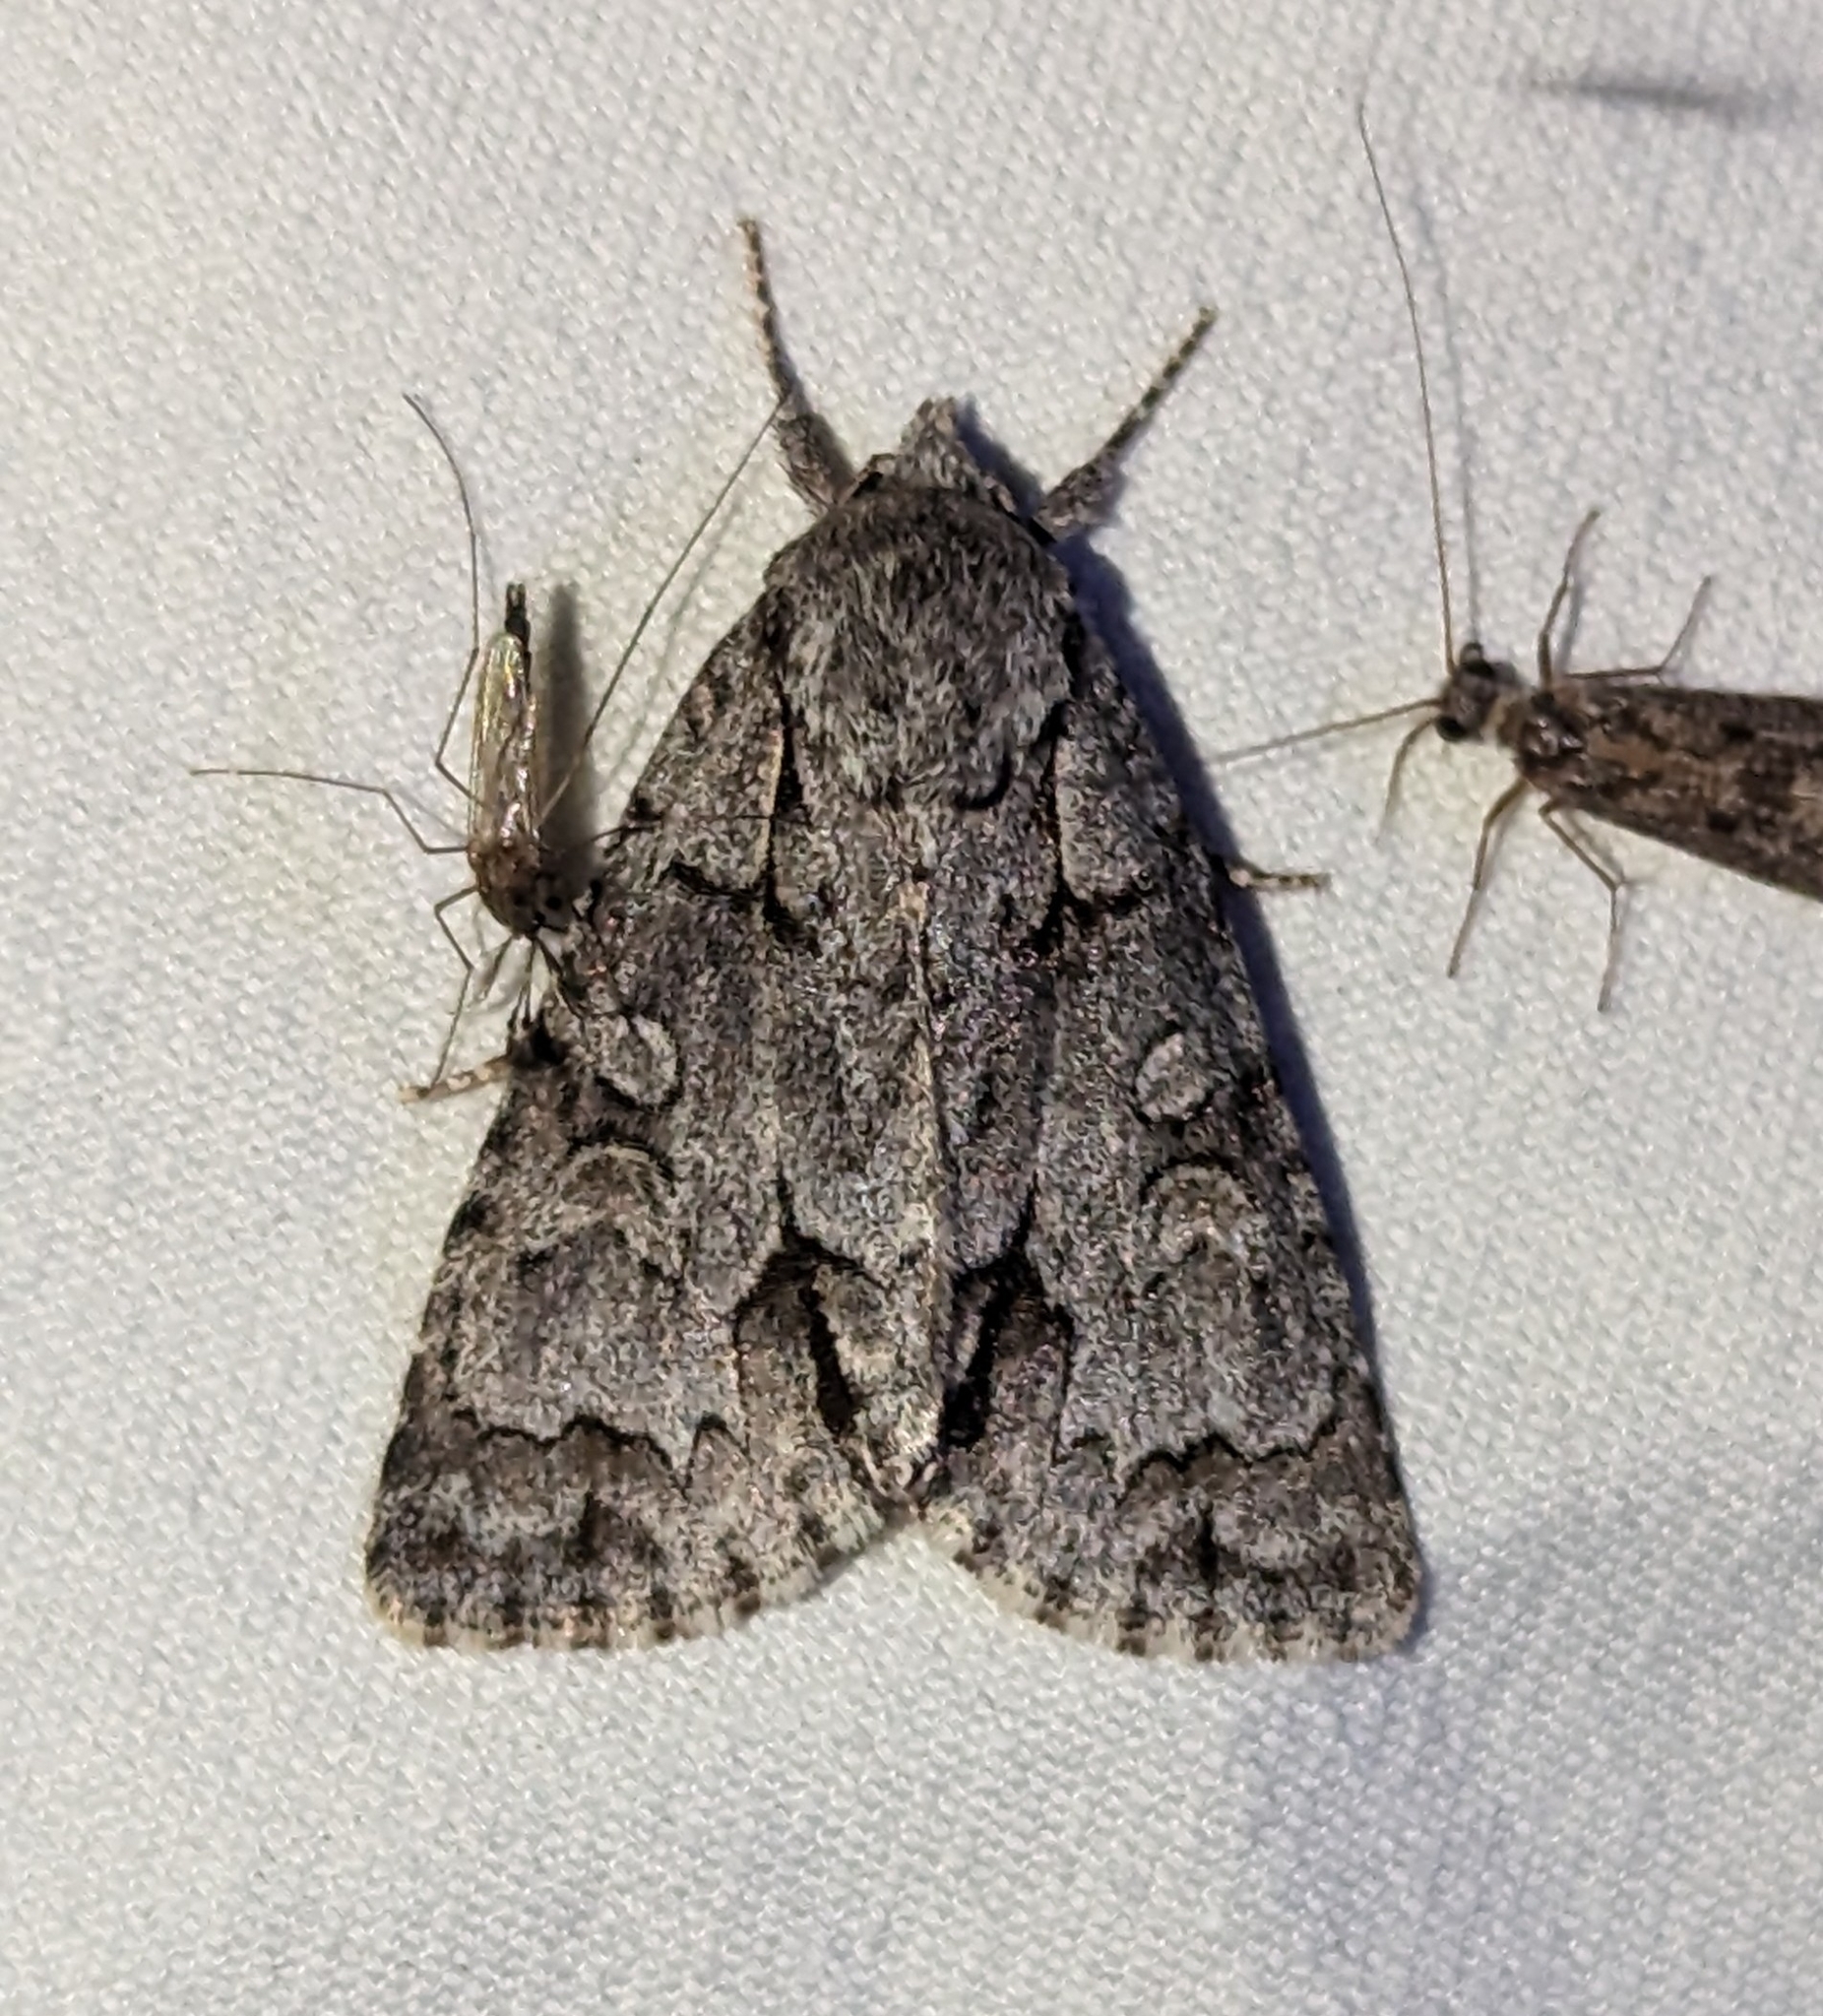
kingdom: Animalia
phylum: Arthropoda
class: Insecta
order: Lepidoptera
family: Noctuidae
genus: Acronicta
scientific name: Acronicta grisea
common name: Gray dagger
